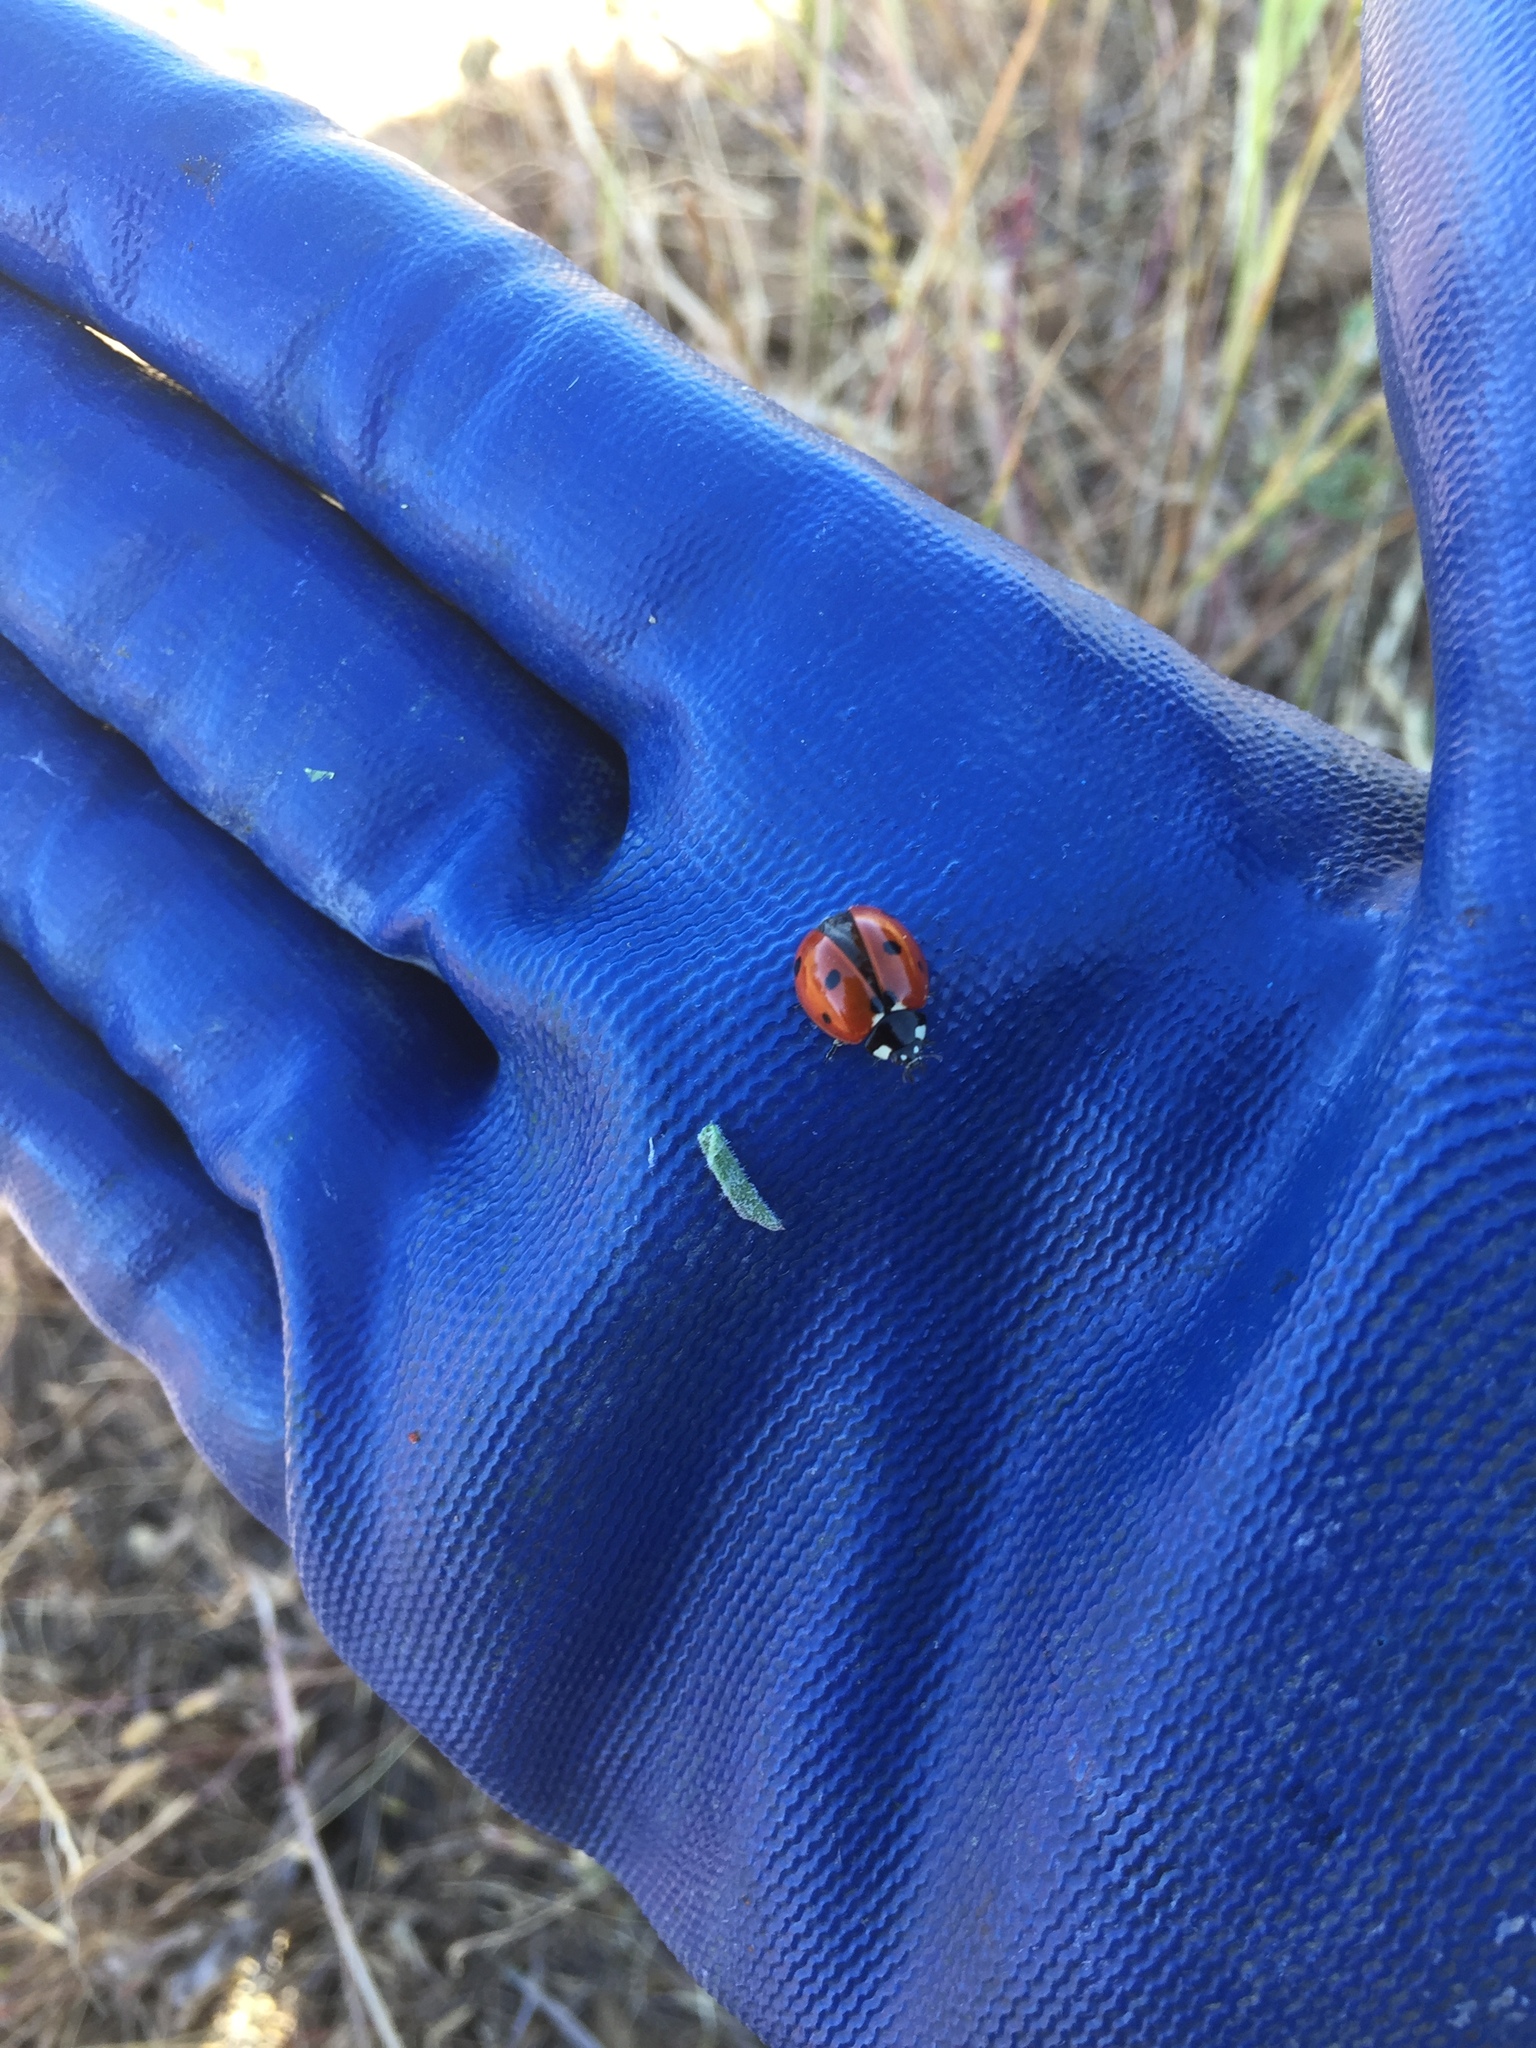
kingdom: Animalia
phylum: Arthropoda
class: Insecta
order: Coleoptera
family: Coccinellidae
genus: Coccinella
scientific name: Coccinella septempunctata
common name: Sevenspotted lady beetle
